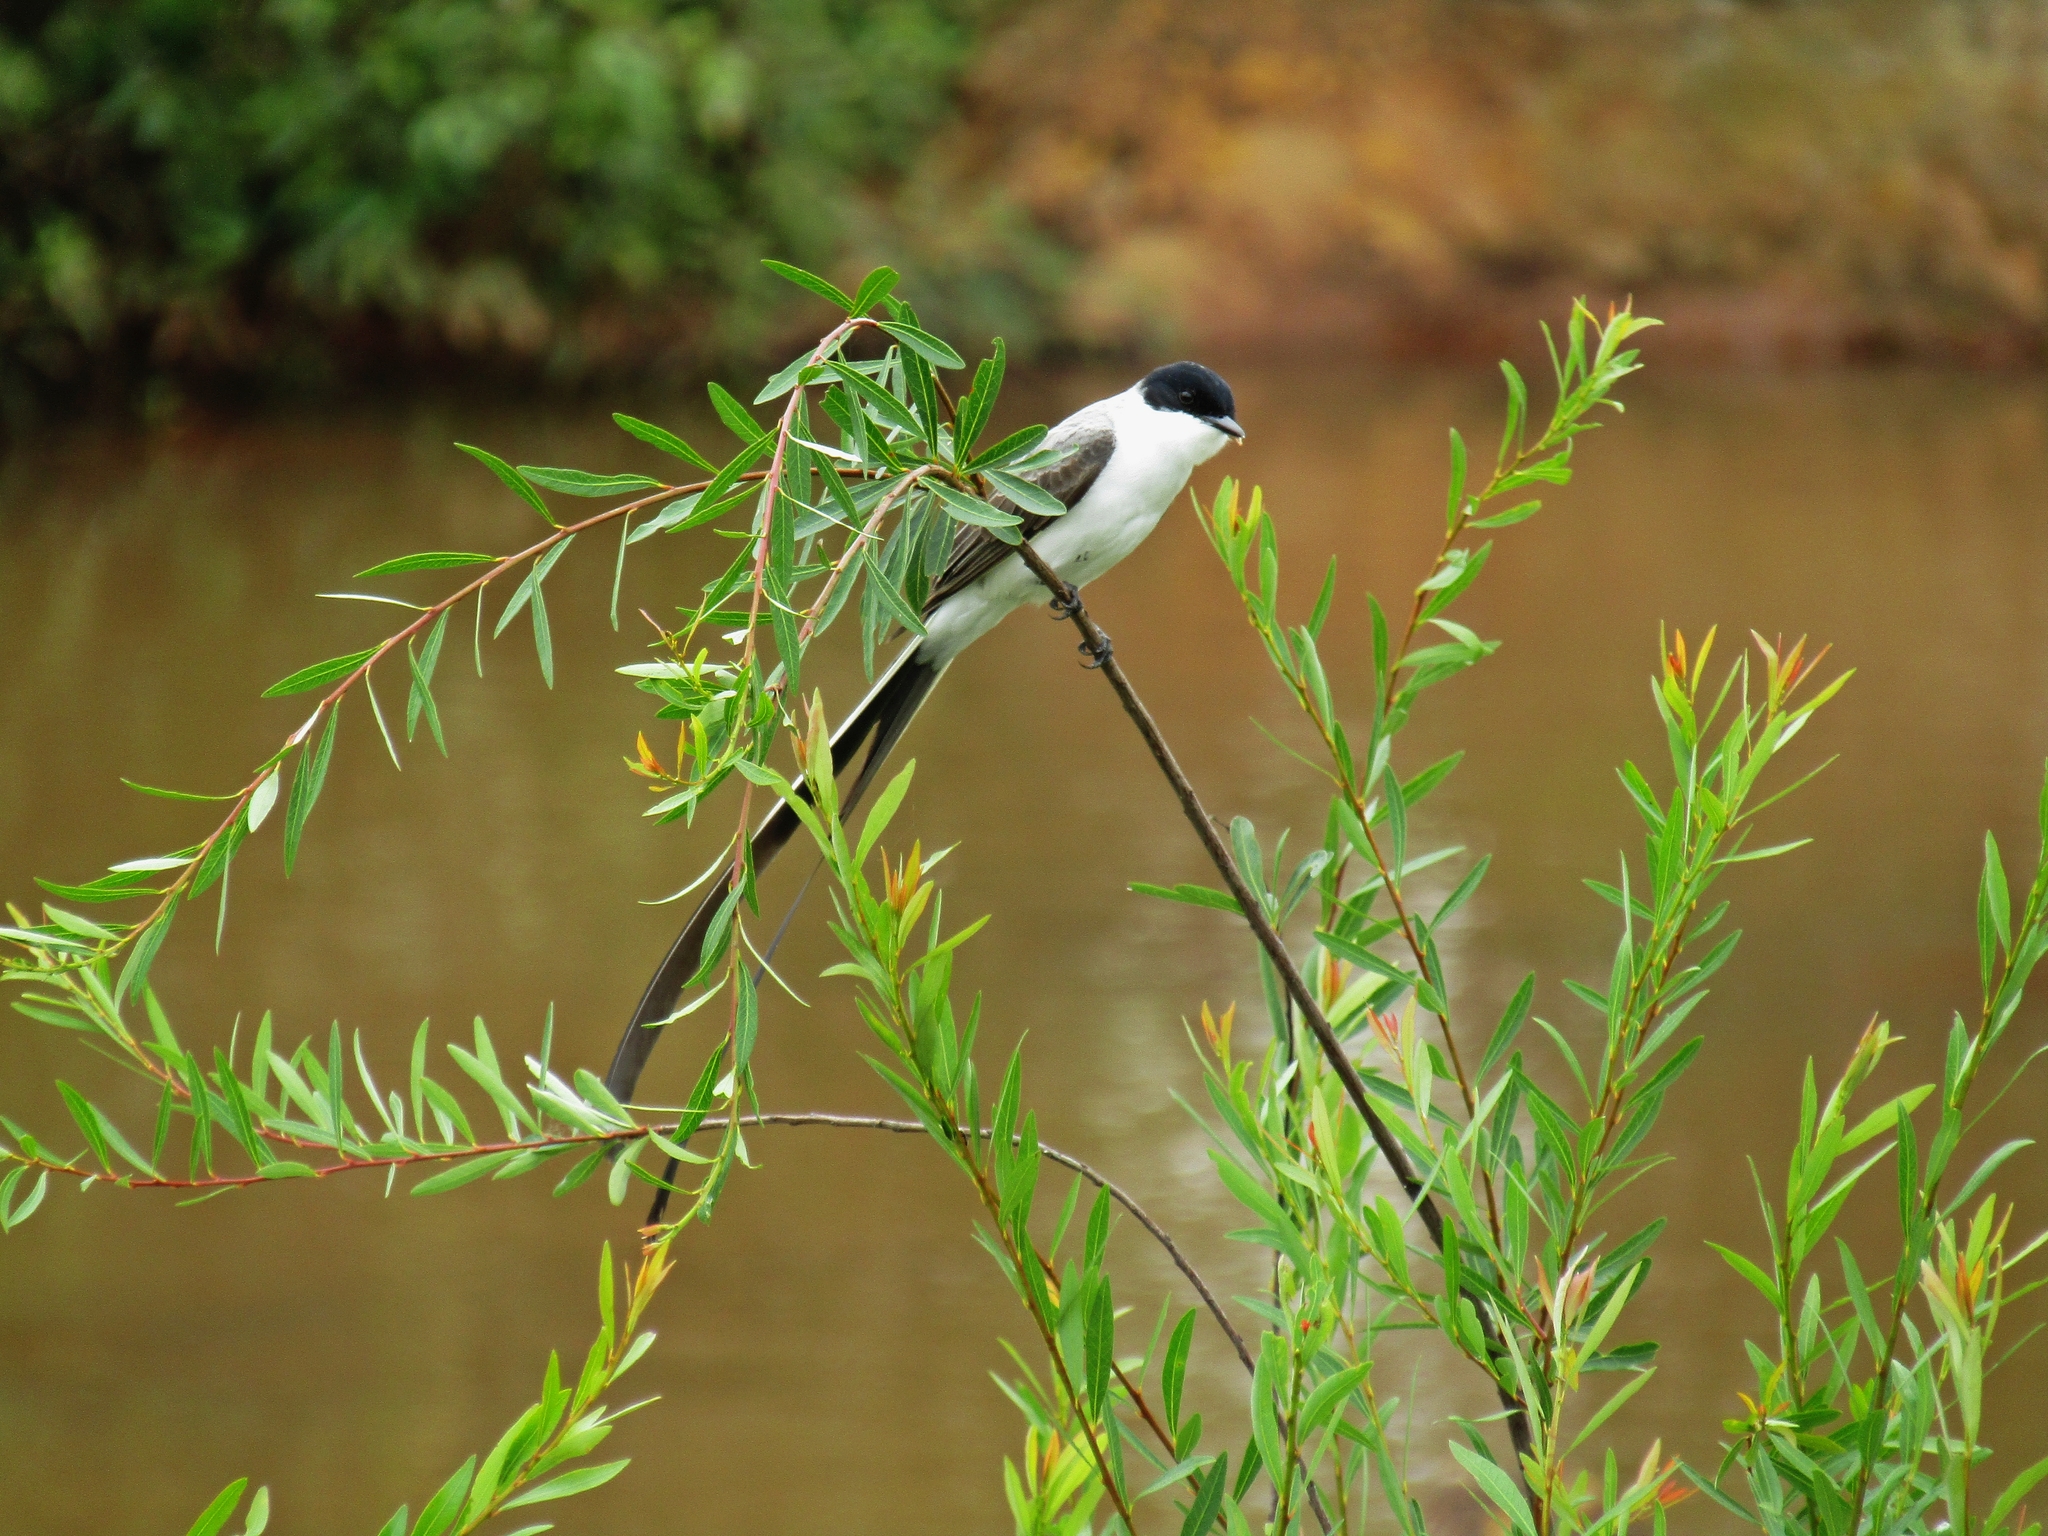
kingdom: Animalia
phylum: Chordata
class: Aves
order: Passeriformes
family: Tyrannidae
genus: Tyrannus
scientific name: Tyrannus savana
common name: Fork-tailed flycatcher
